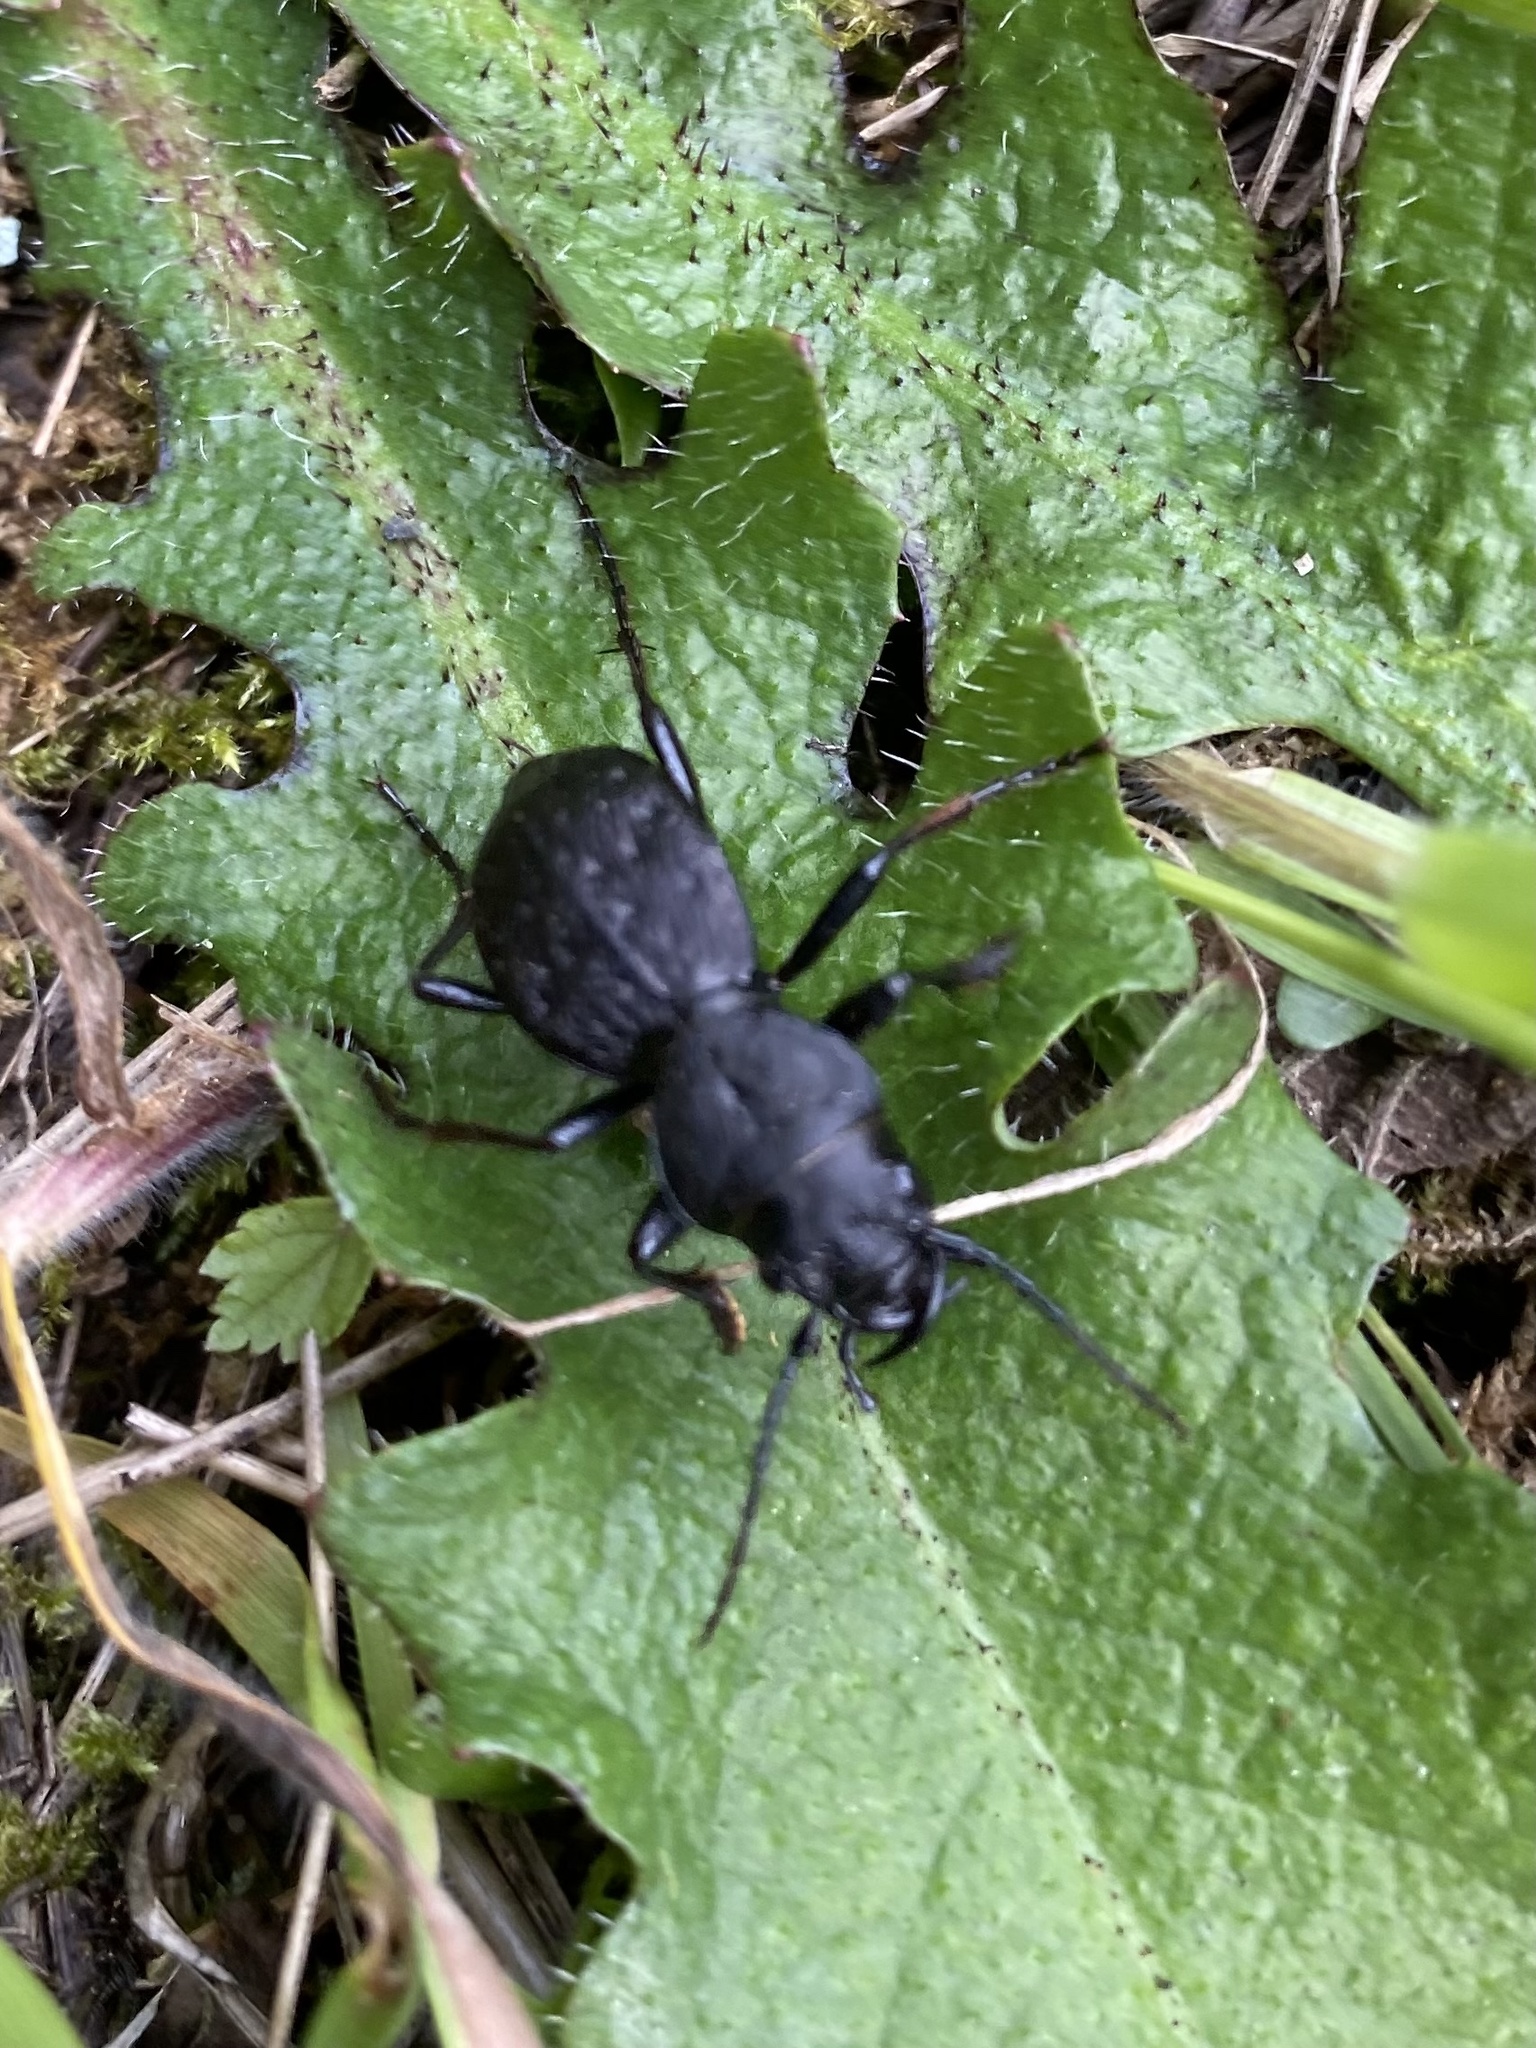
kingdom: Animalia
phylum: Arthropoda
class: Insecta
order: Coleoptera
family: Carabidae
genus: Omus
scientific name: Omus dejeanii
